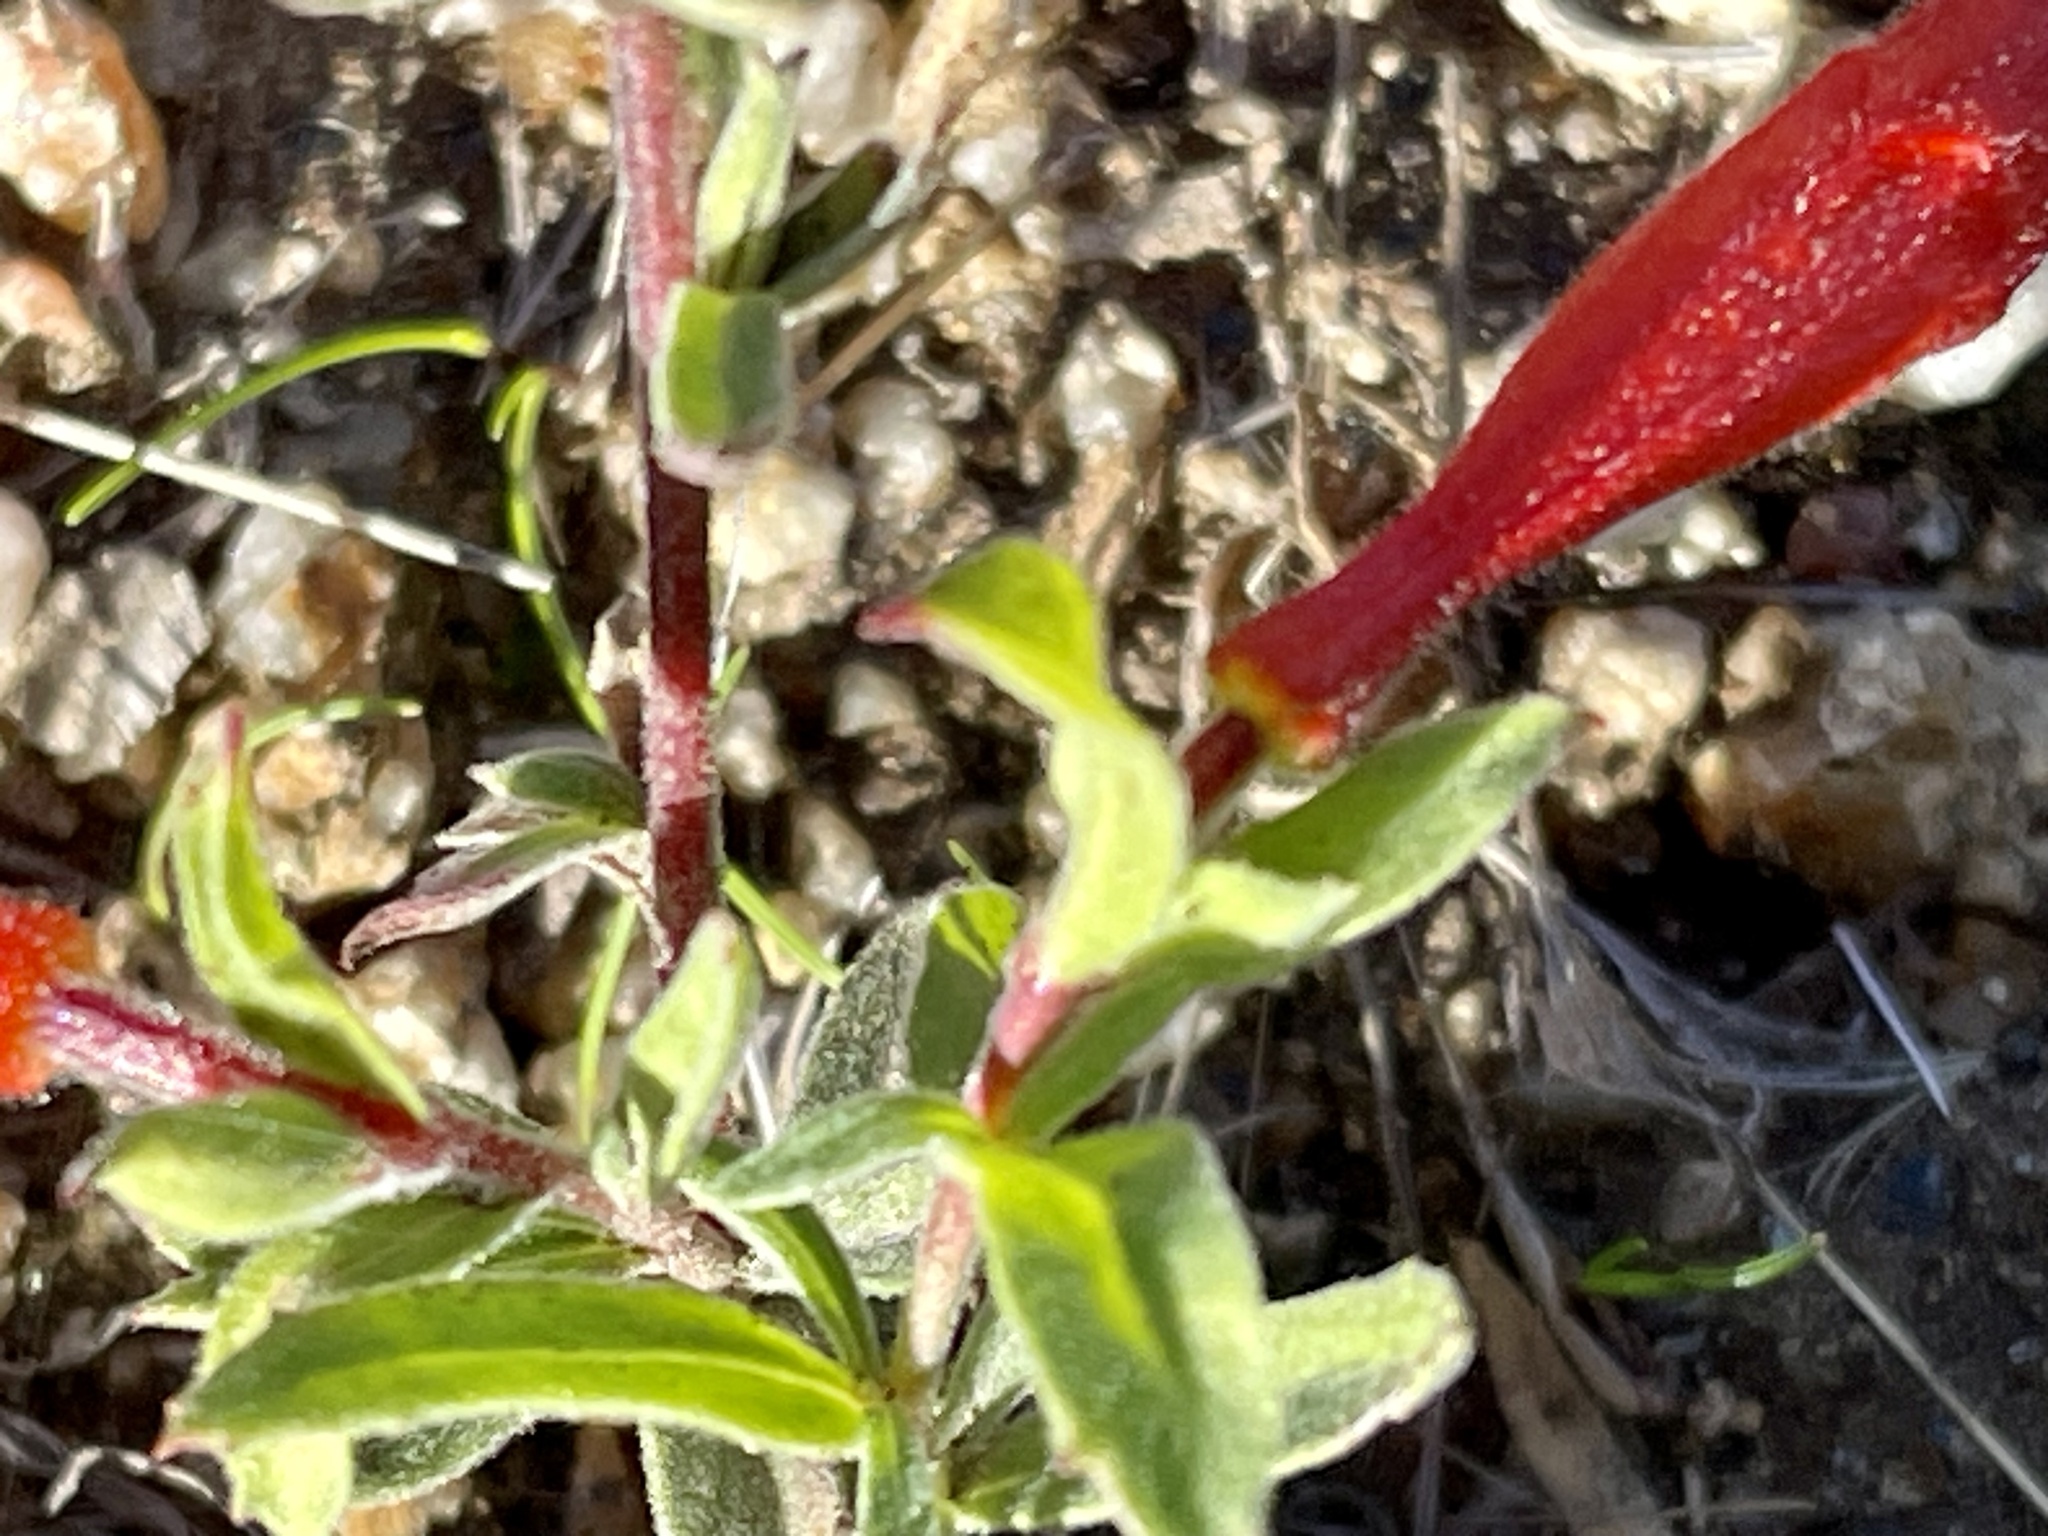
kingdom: Plantae
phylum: Tracheophyta
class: Magnoliopsida
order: Myrtales
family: Onagraceae
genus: Epilobium
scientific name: Epilobium canum
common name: California-fuchsia
